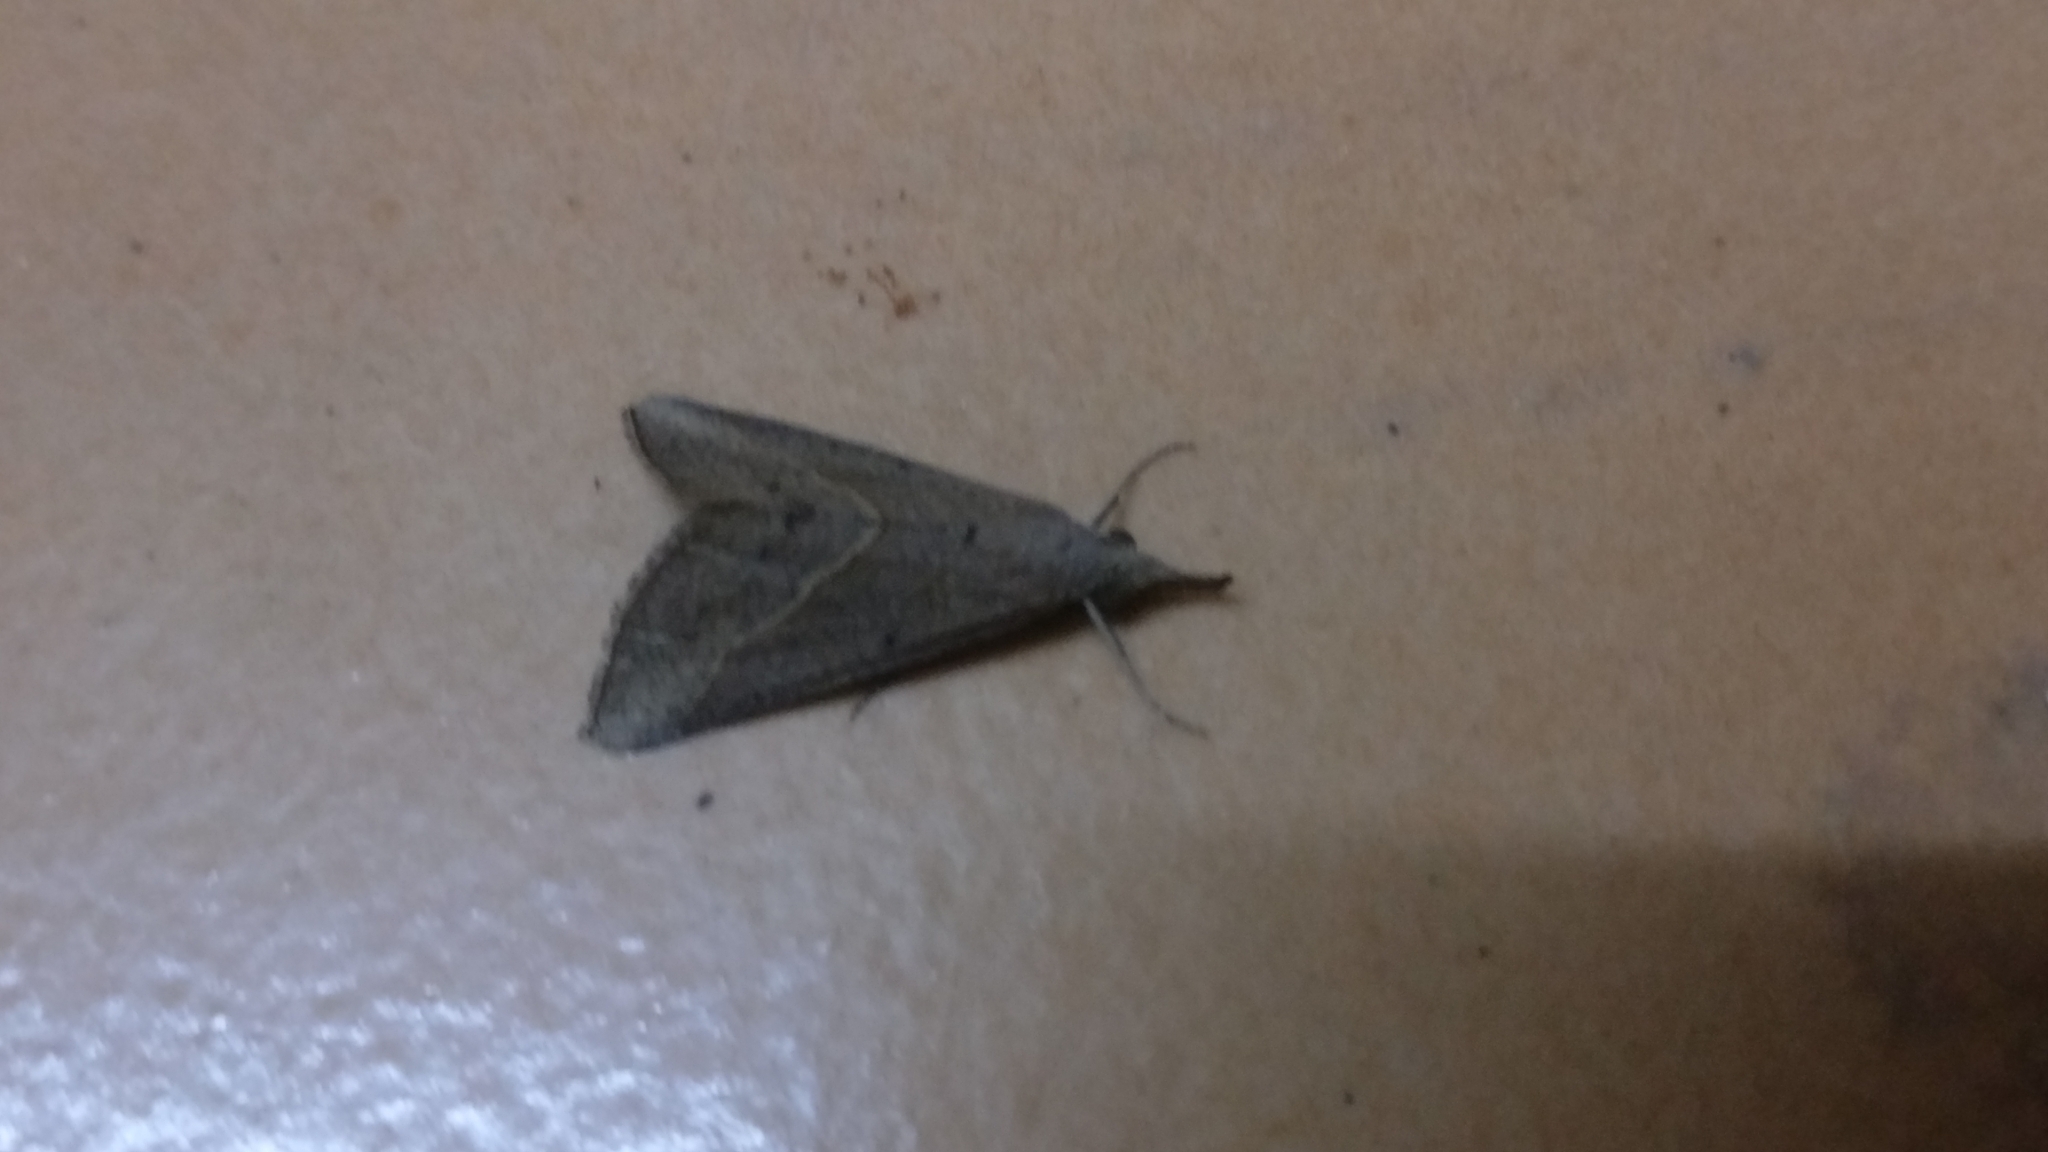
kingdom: Animalia
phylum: Arthropoda
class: Insecta
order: Lepidoptera
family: Erebidae
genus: Hypena
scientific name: Hypena lividalis
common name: Chevron snout
